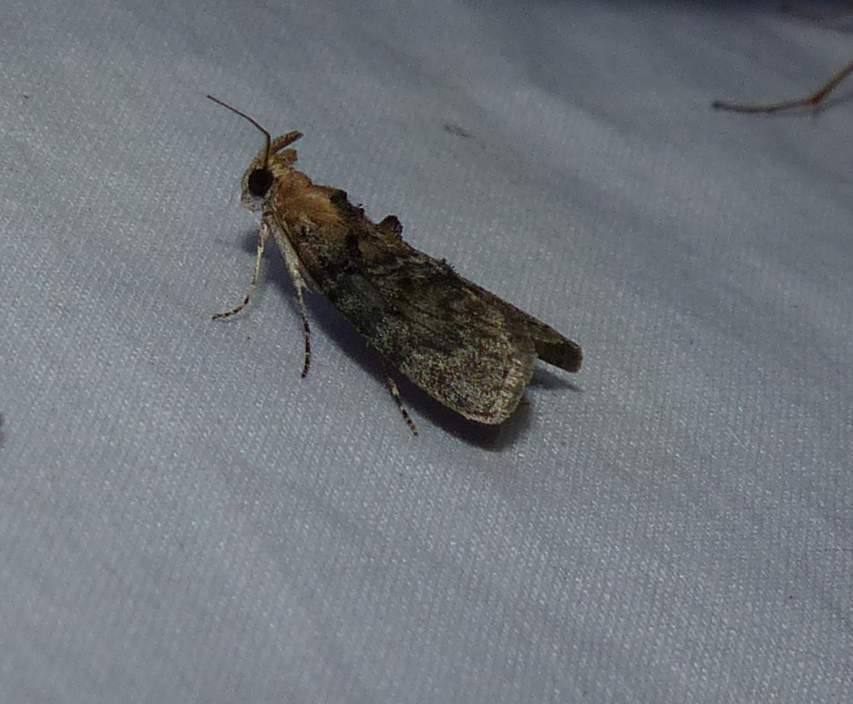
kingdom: Animalia
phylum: Arthropoda
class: Insecta
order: Lepidoptera
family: Pyralidae
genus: Pococera
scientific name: Pococera expandens
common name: Striped oak webworm moth
